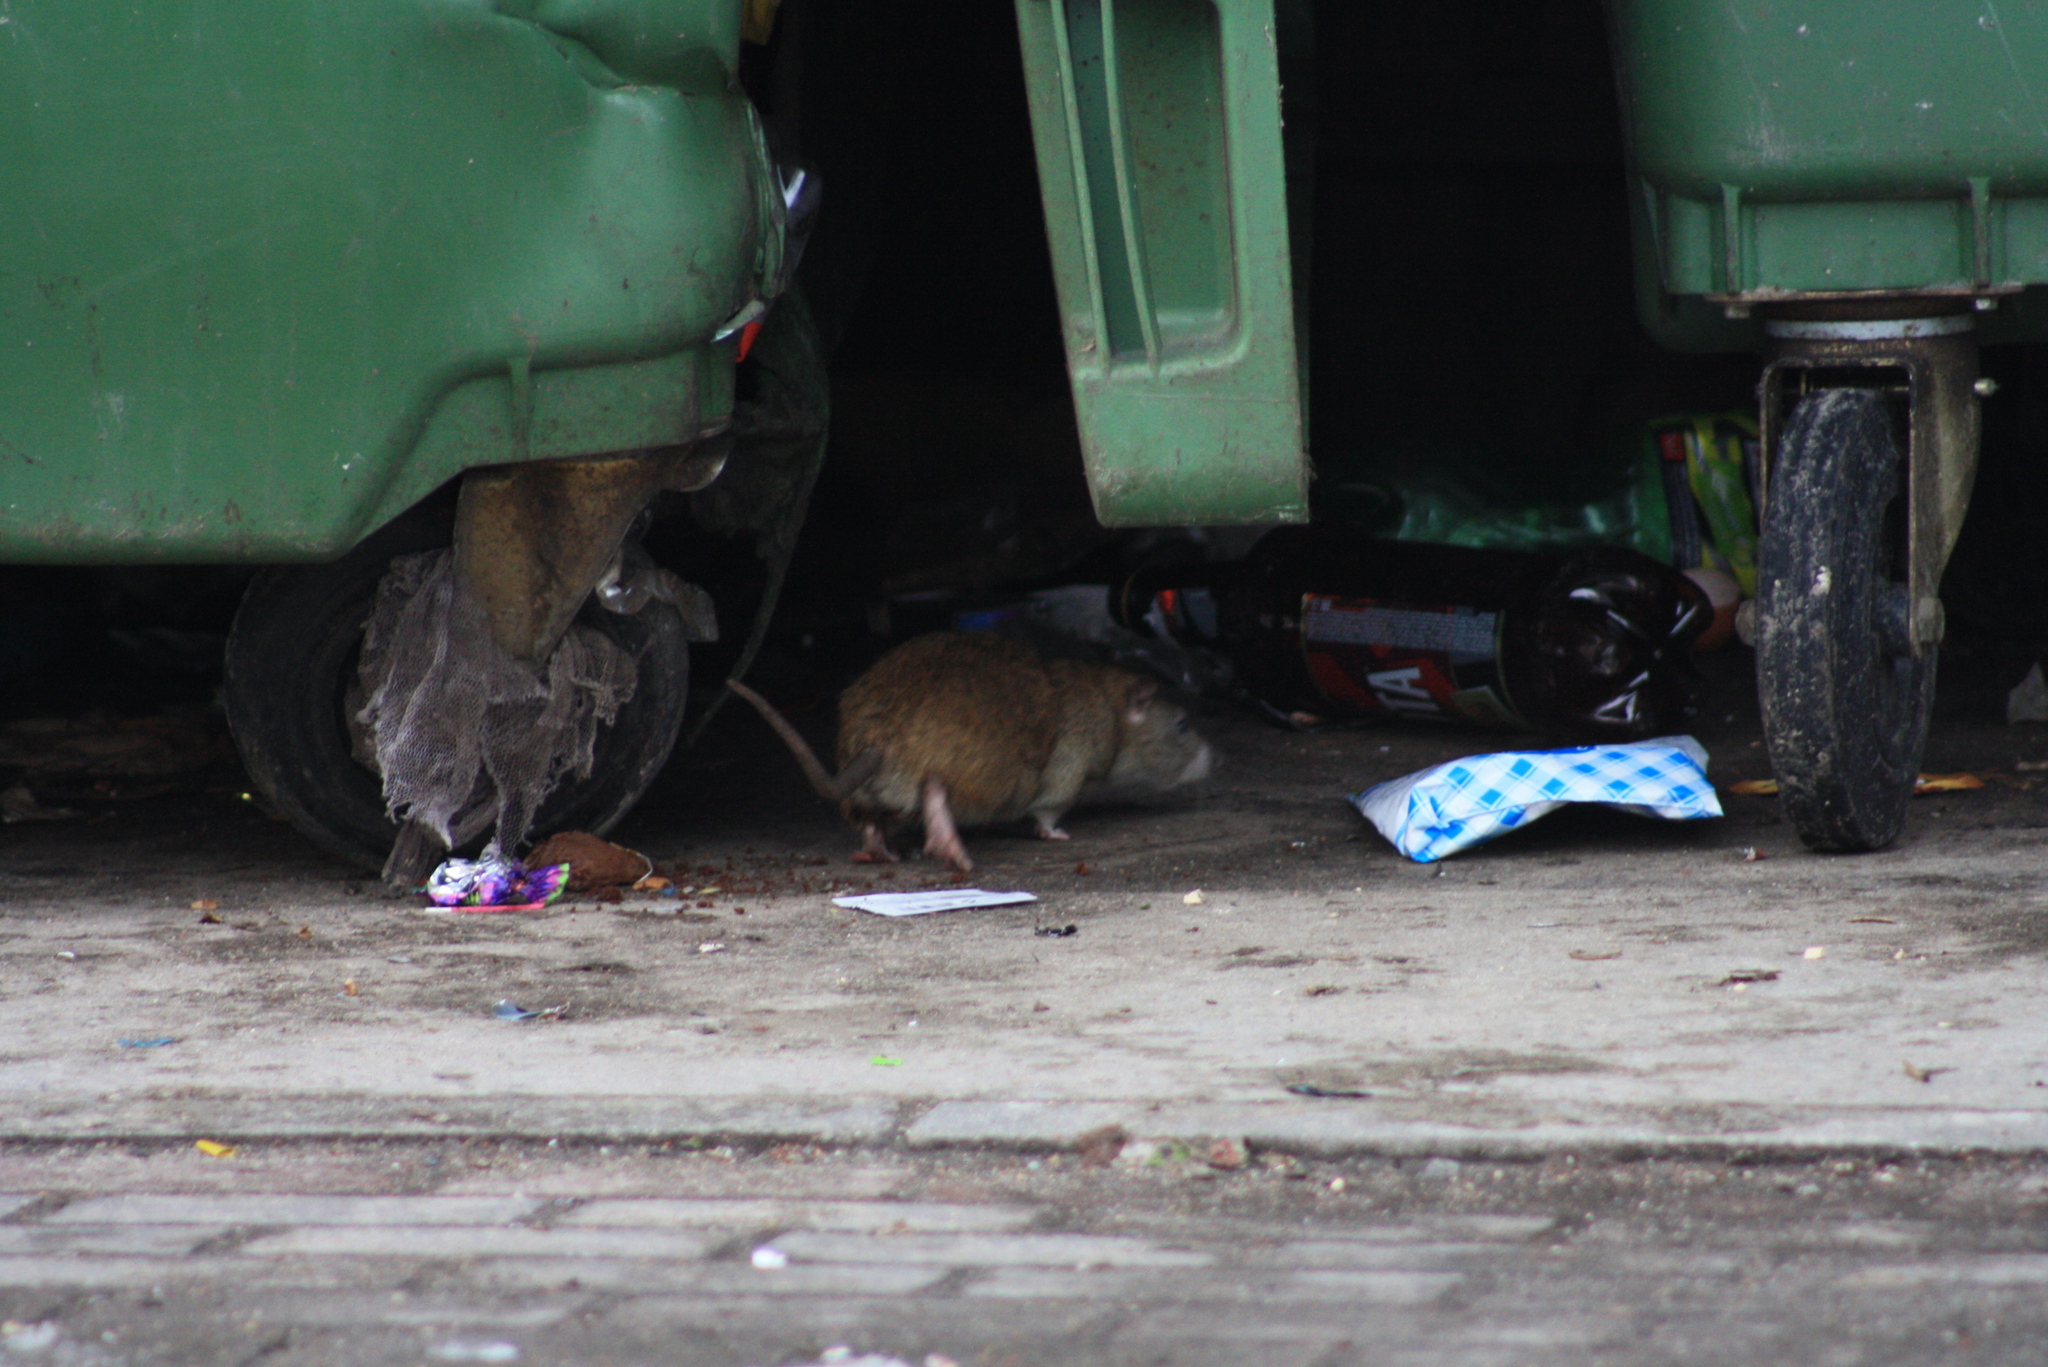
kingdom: Animalia
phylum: Chordata
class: Mammalia
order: Rodentia
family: Muridae
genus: Rattus
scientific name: Rattus norvegicus
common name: Brown rat
